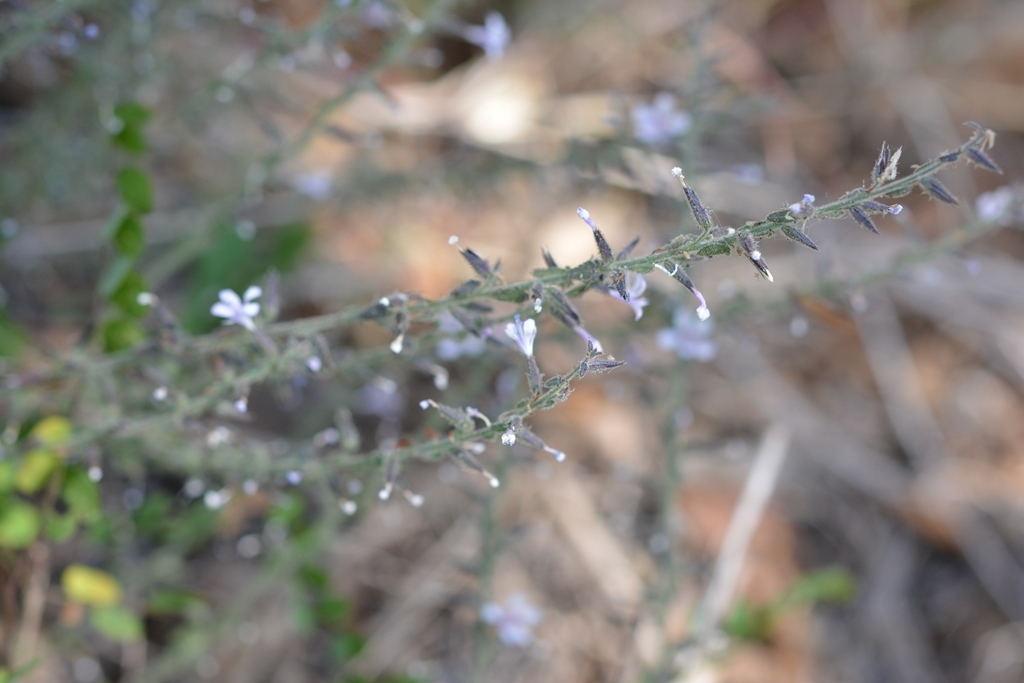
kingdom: Plantae
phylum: Tracheophyta
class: Magnoliopsida
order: Ericales
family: Polemoniaceae
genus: Loeselia
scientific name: Loeselia pumila
